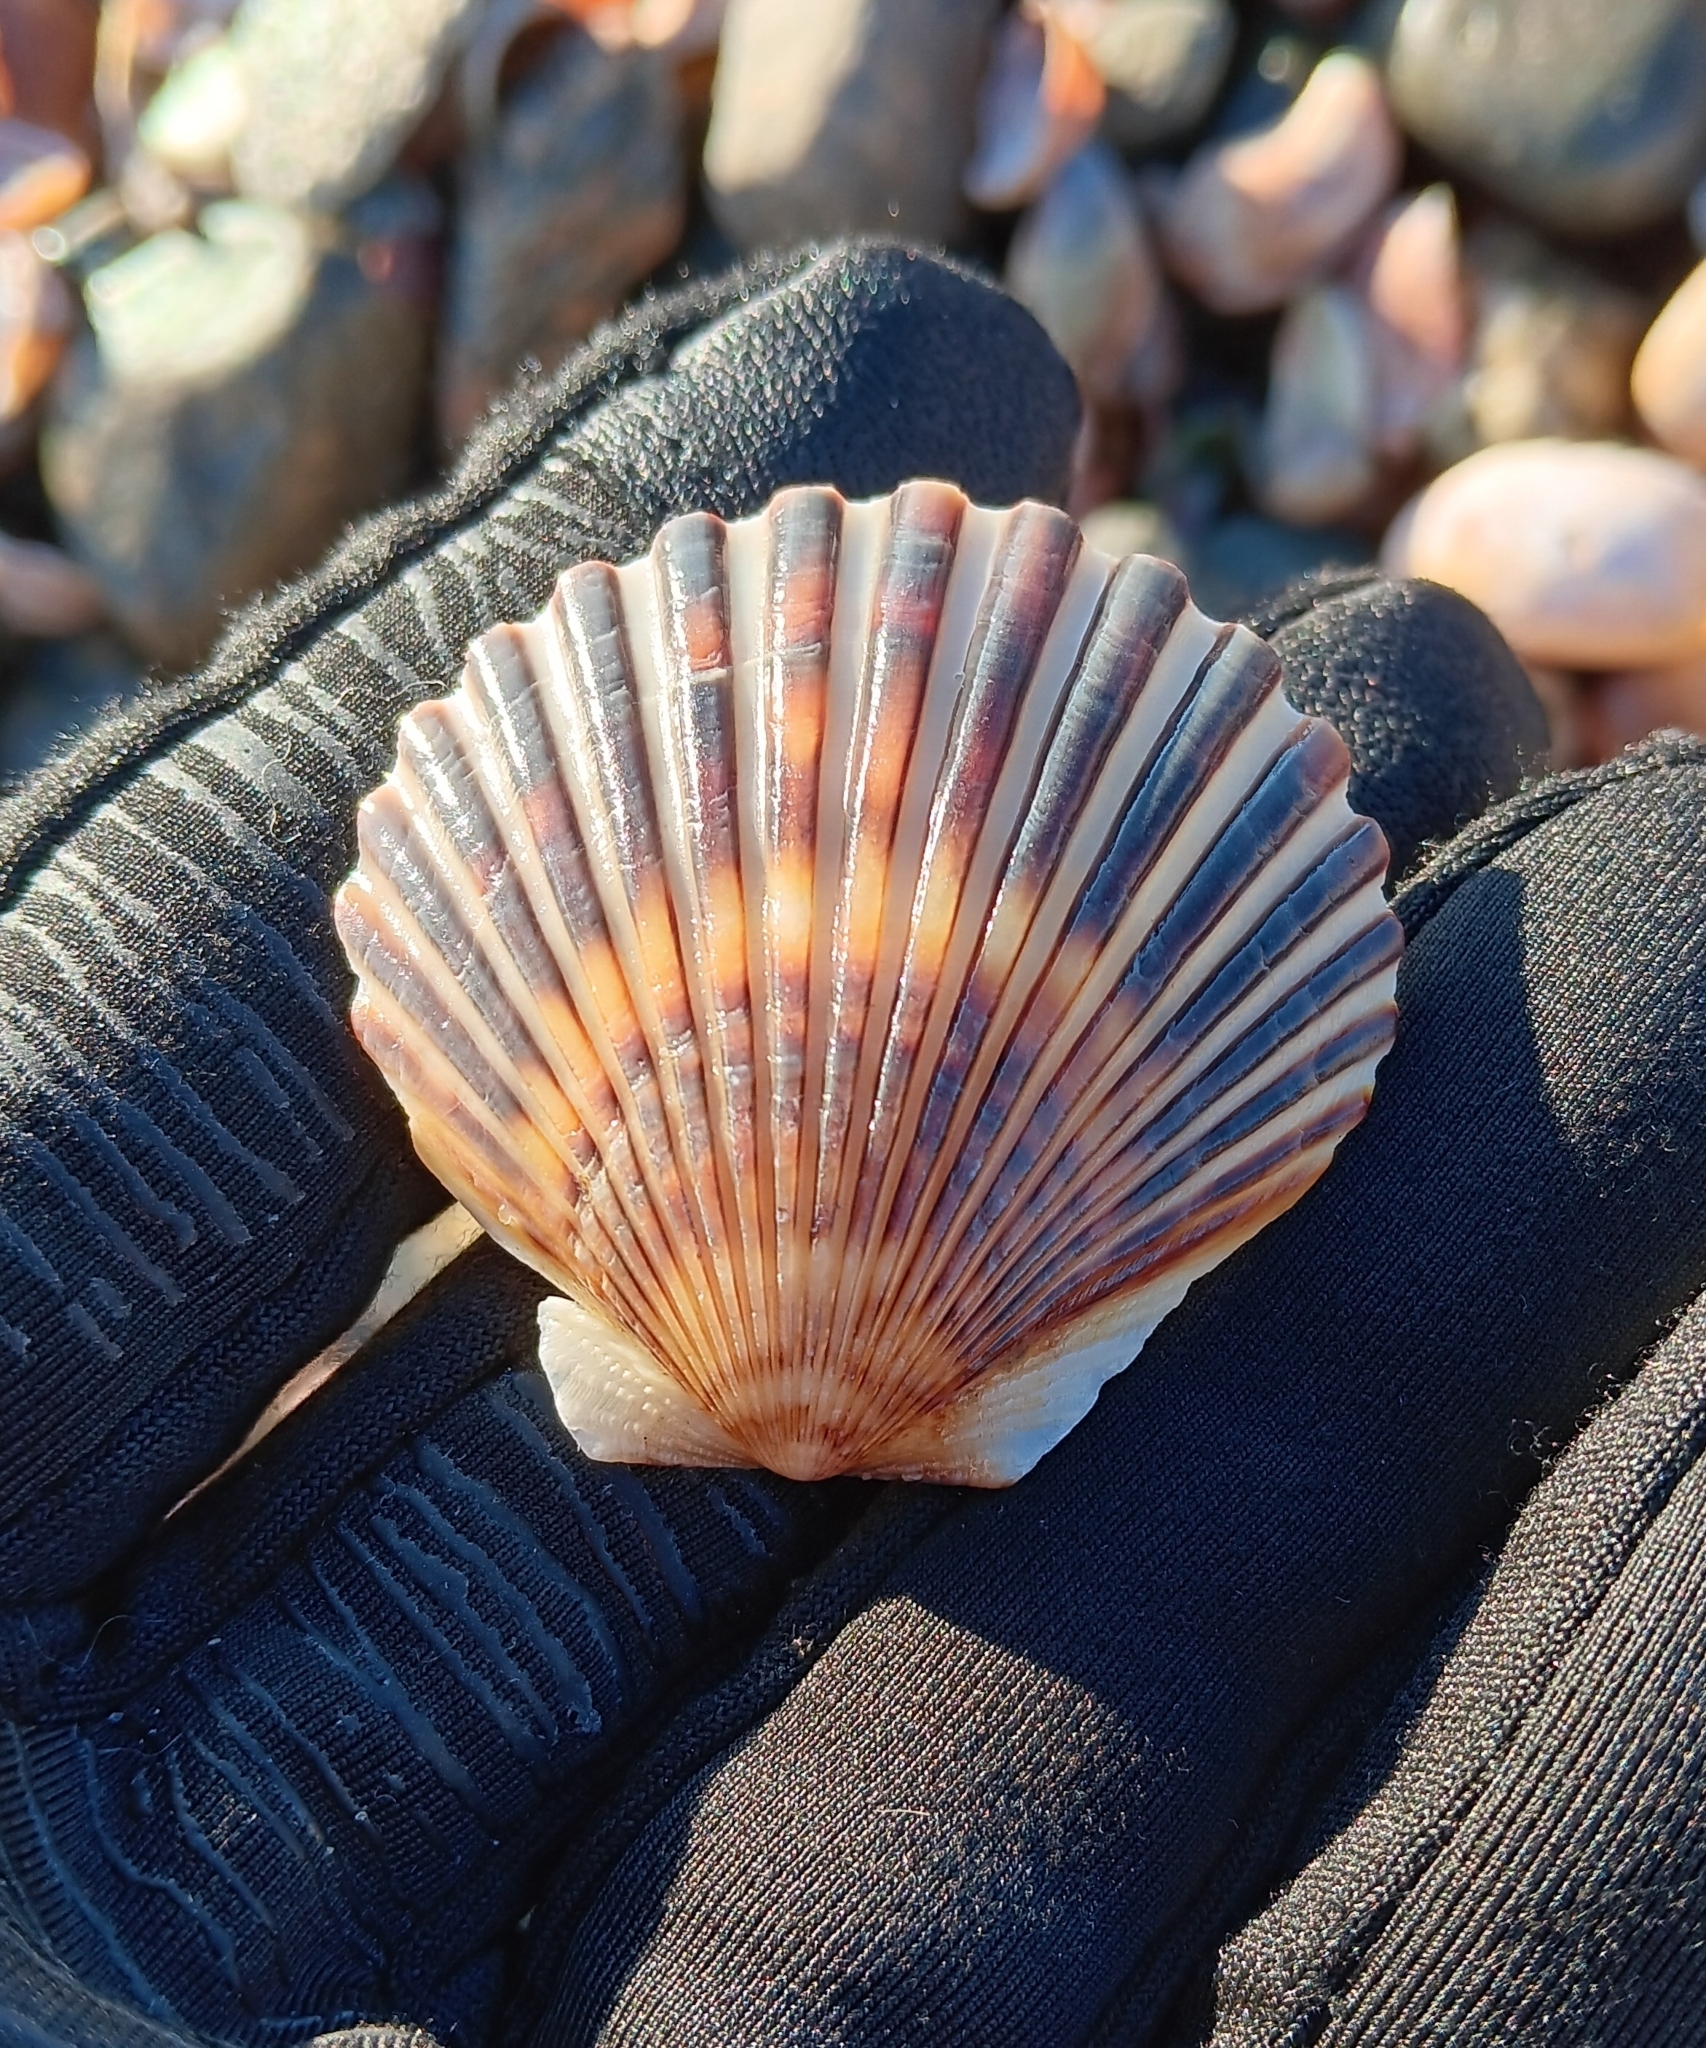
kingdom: Animalia
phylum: Mollusca
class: Bivalvia
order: Pectinida
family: Pectinidae
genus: Argopecten
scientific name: Argopecten irradians
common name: Atlantic bay scallop
